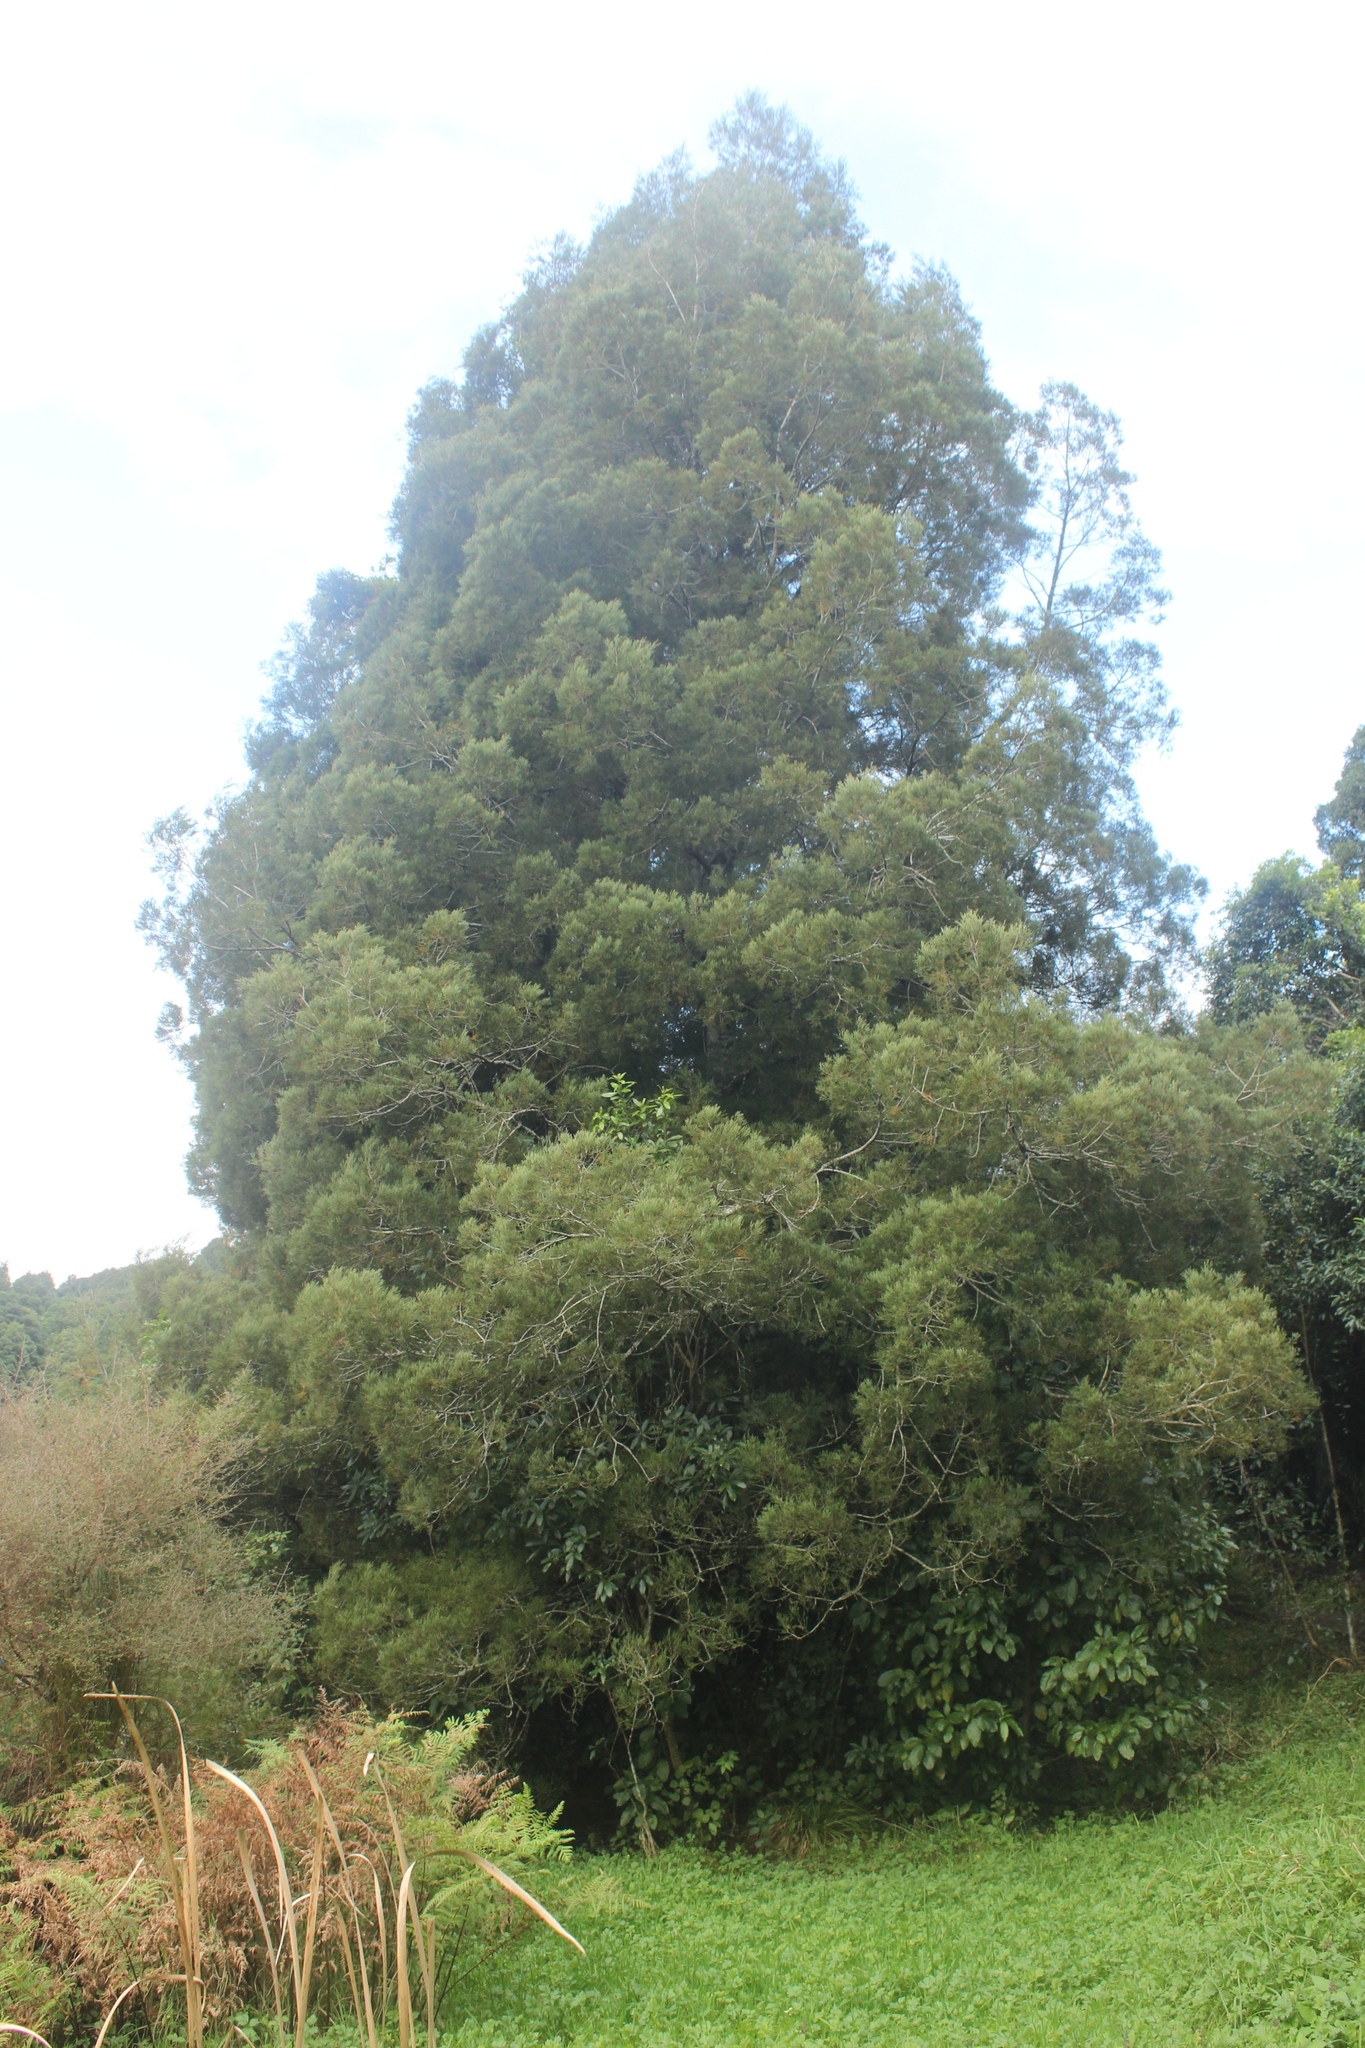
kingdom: Plantae
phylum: Tracheophyta
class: Pinopsida
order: Pinales
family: Podocarpaceae
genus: Dacrycarpus
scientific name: Dacrycarpus dacrydioides
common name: White pine
